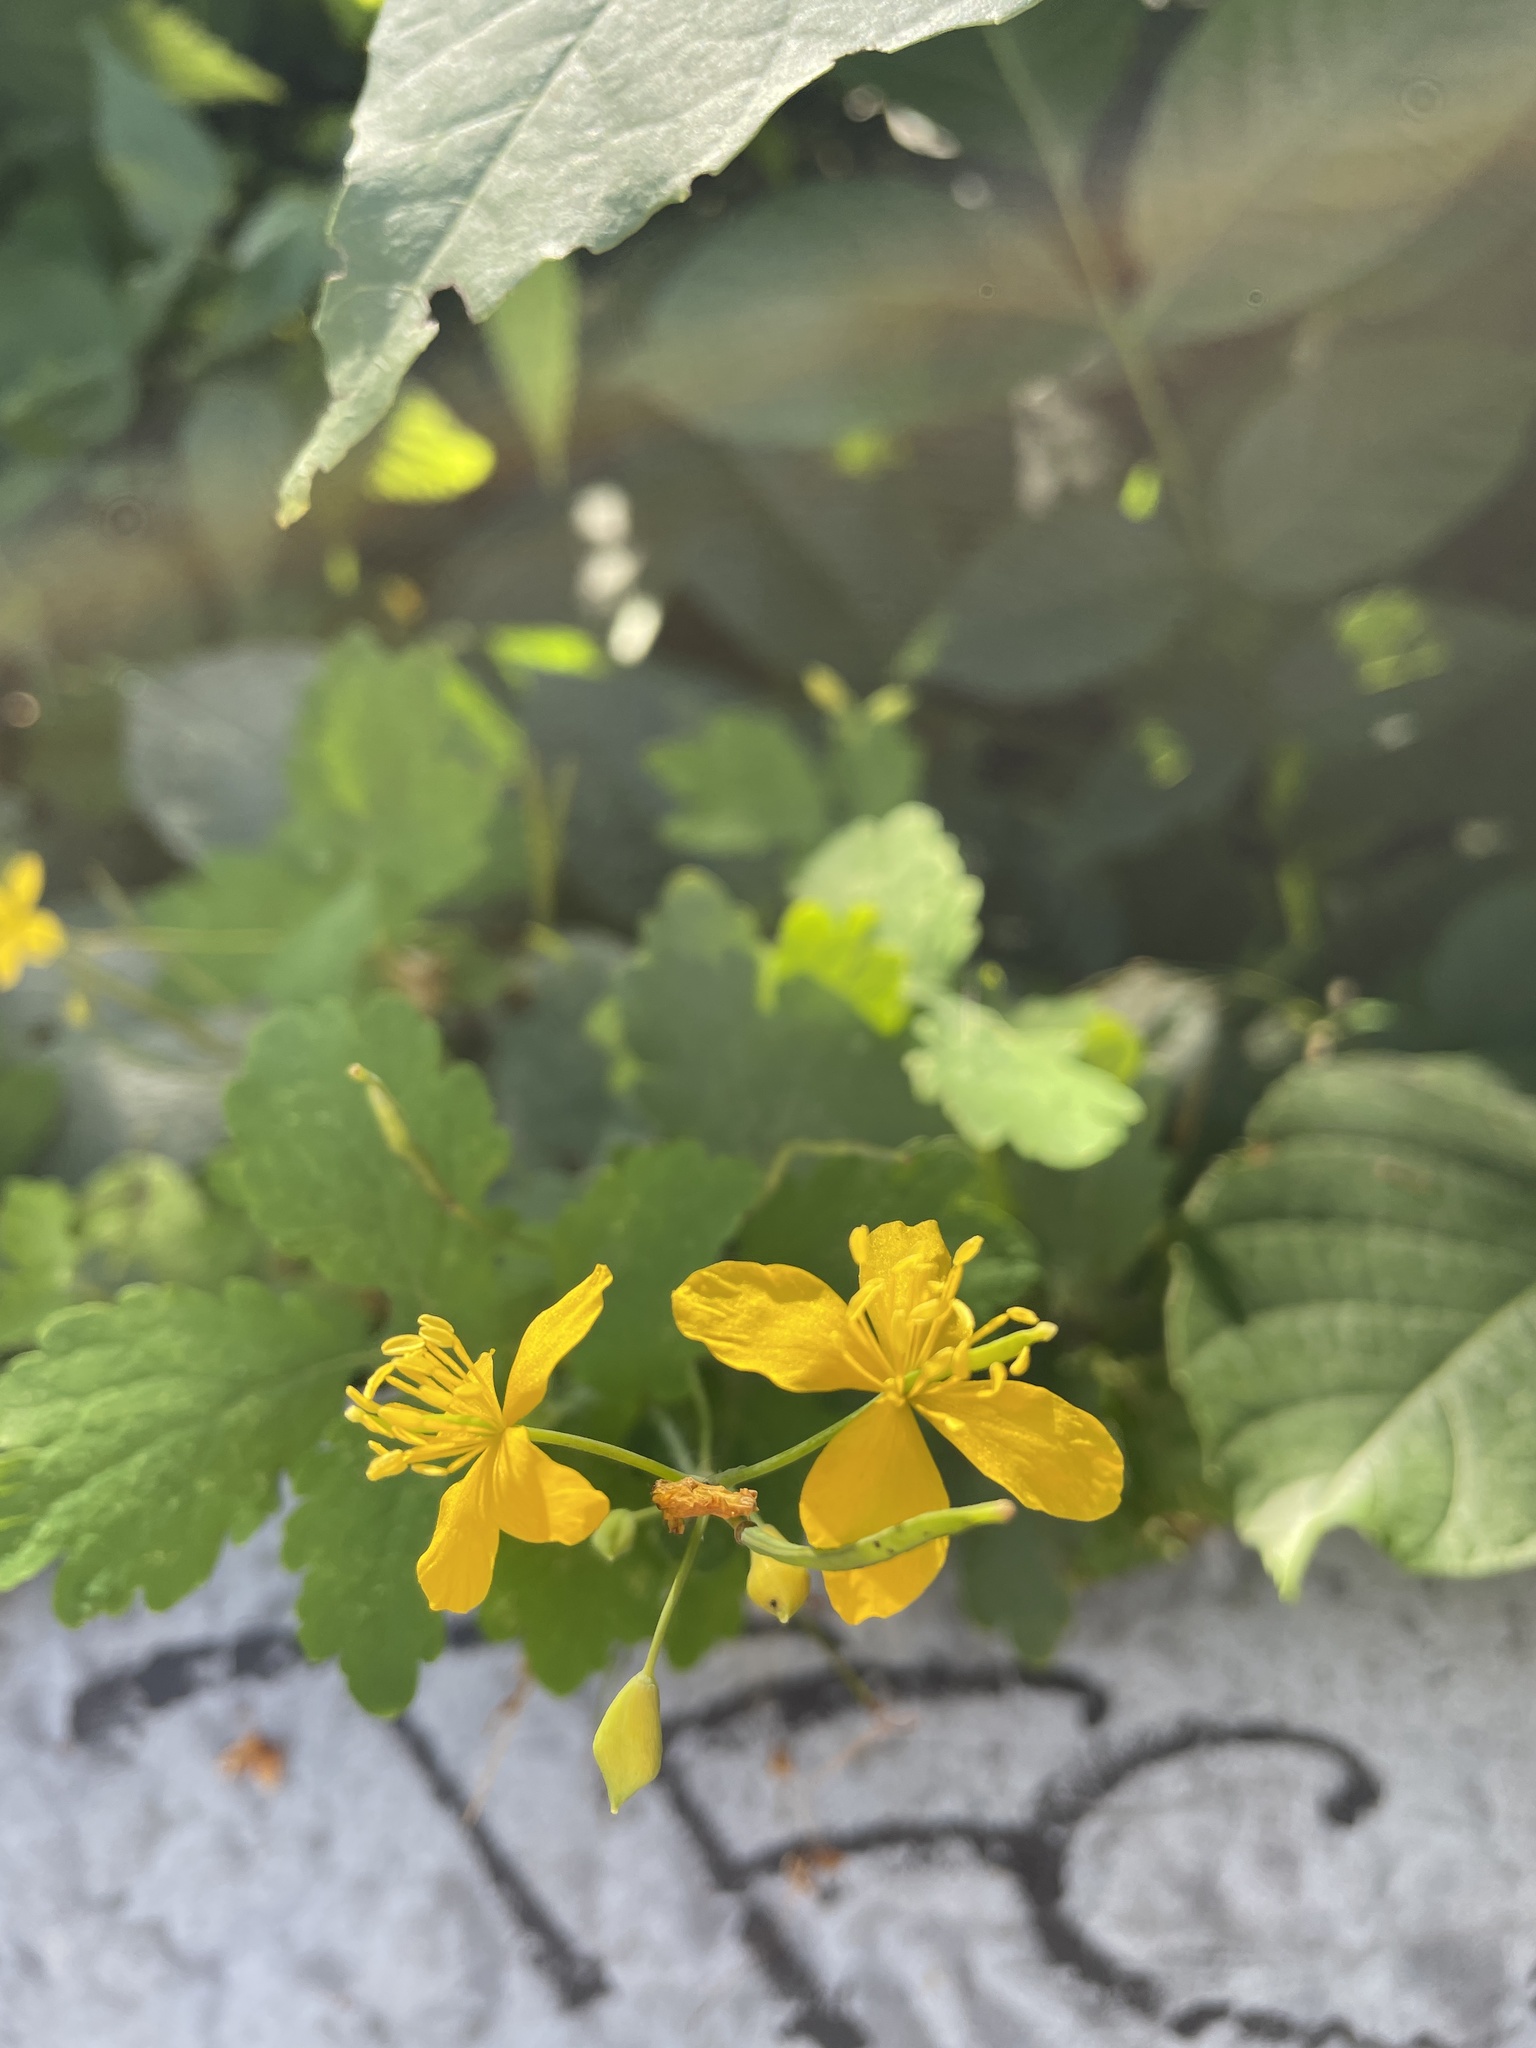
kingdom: Plantae
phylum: Tracheophyta
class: Magnoliopsida
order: Ranunculales
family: Papaveraceae
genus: Chelidonium
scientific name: Chelidonium majus
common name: Greater celandine
